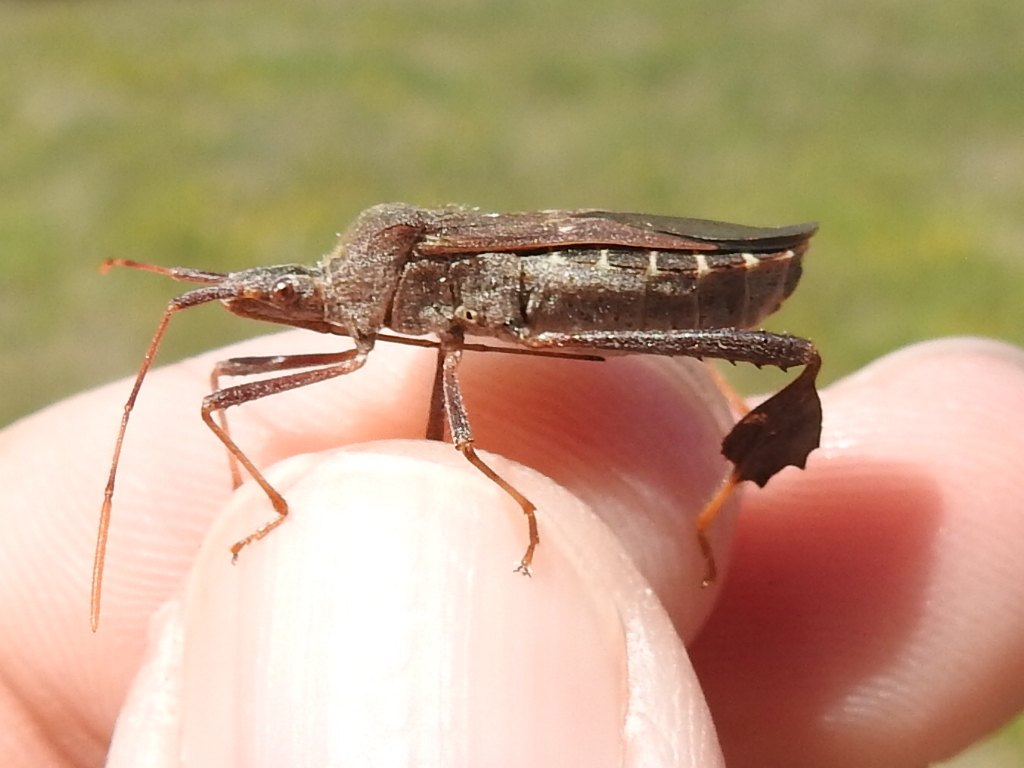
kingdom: Animalia
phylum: Arthropoda
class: Insecta
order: Hemiptera
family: Coreidae
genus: Leptoglossus
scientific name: Leptoglossus oppositus
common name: Northern leaf-footed bug
